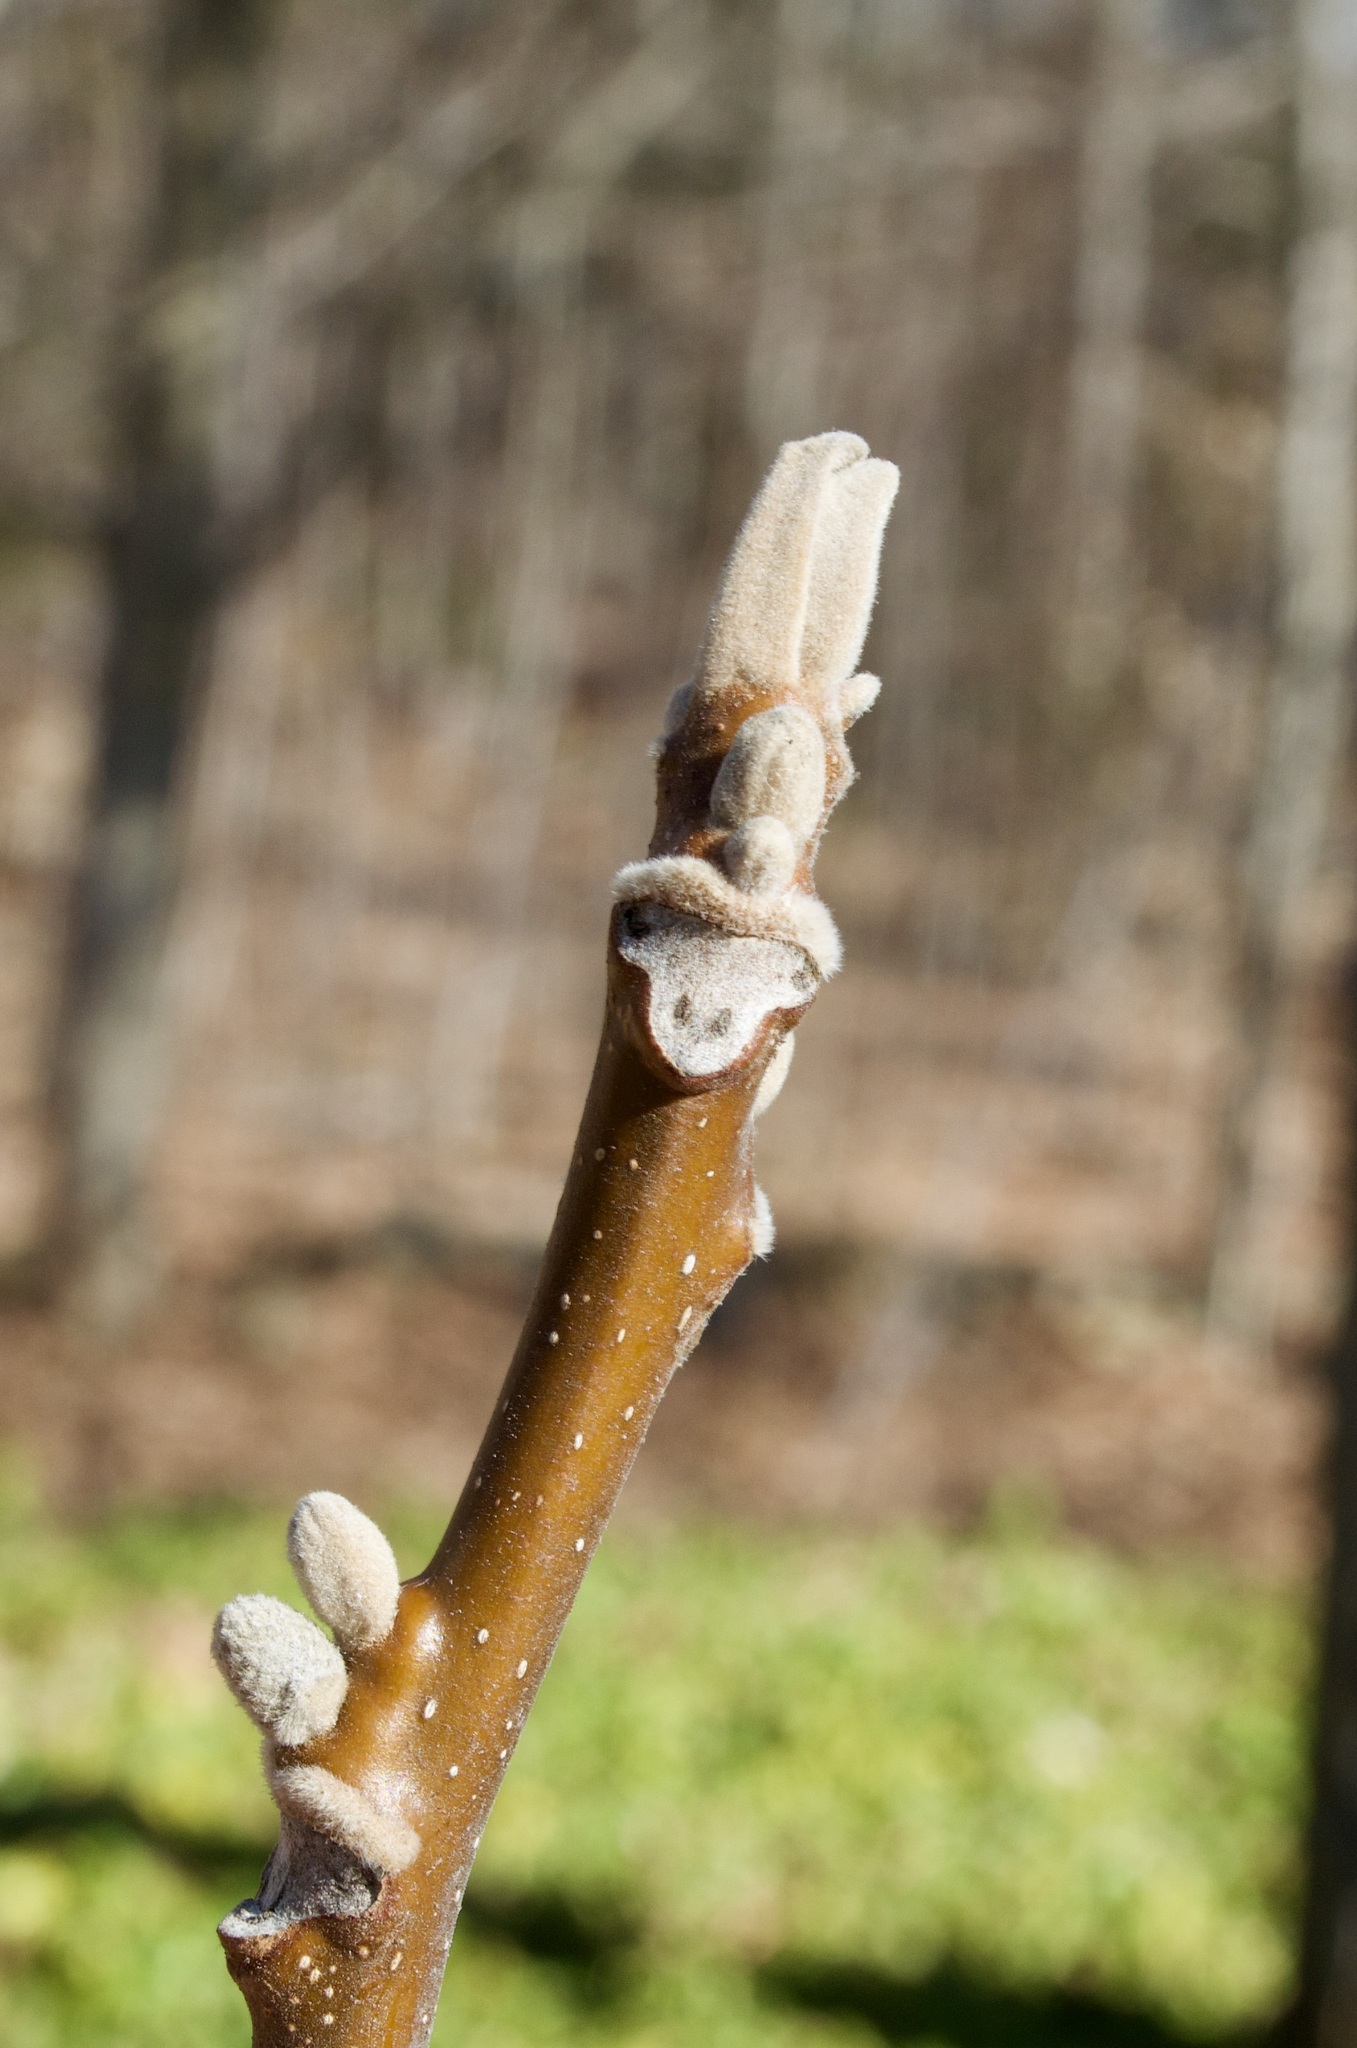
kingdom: Plantae
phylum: Tracheophyta
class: Magnoliopsida
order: Fagales
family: Juglandaceae
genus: Juglans
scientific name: Juglans cinerea
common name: Butternut
